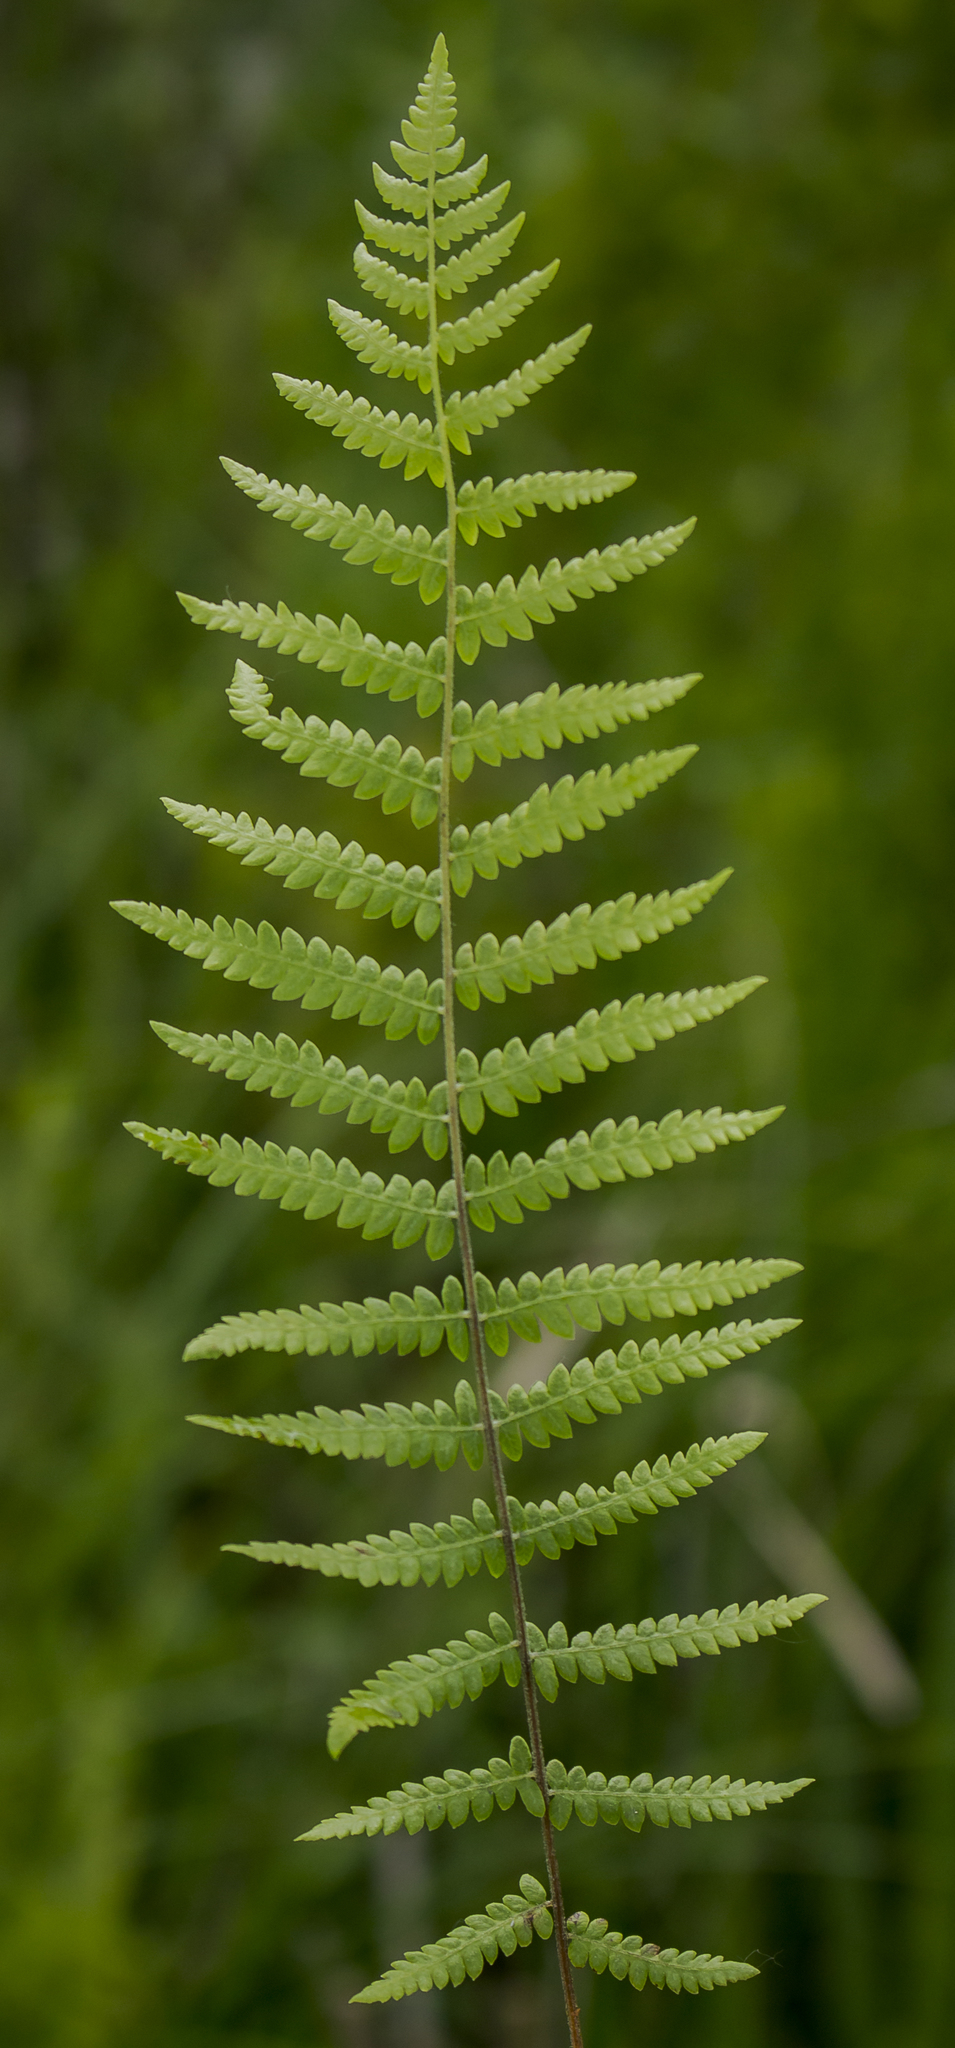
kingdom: Plantae
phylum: Tracheophyta
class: Polypodiopsida
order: Polypodiales
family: Thelypteridaceae
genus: Thelypteris
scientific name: Thelypteris palustris
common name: Marsh fern
